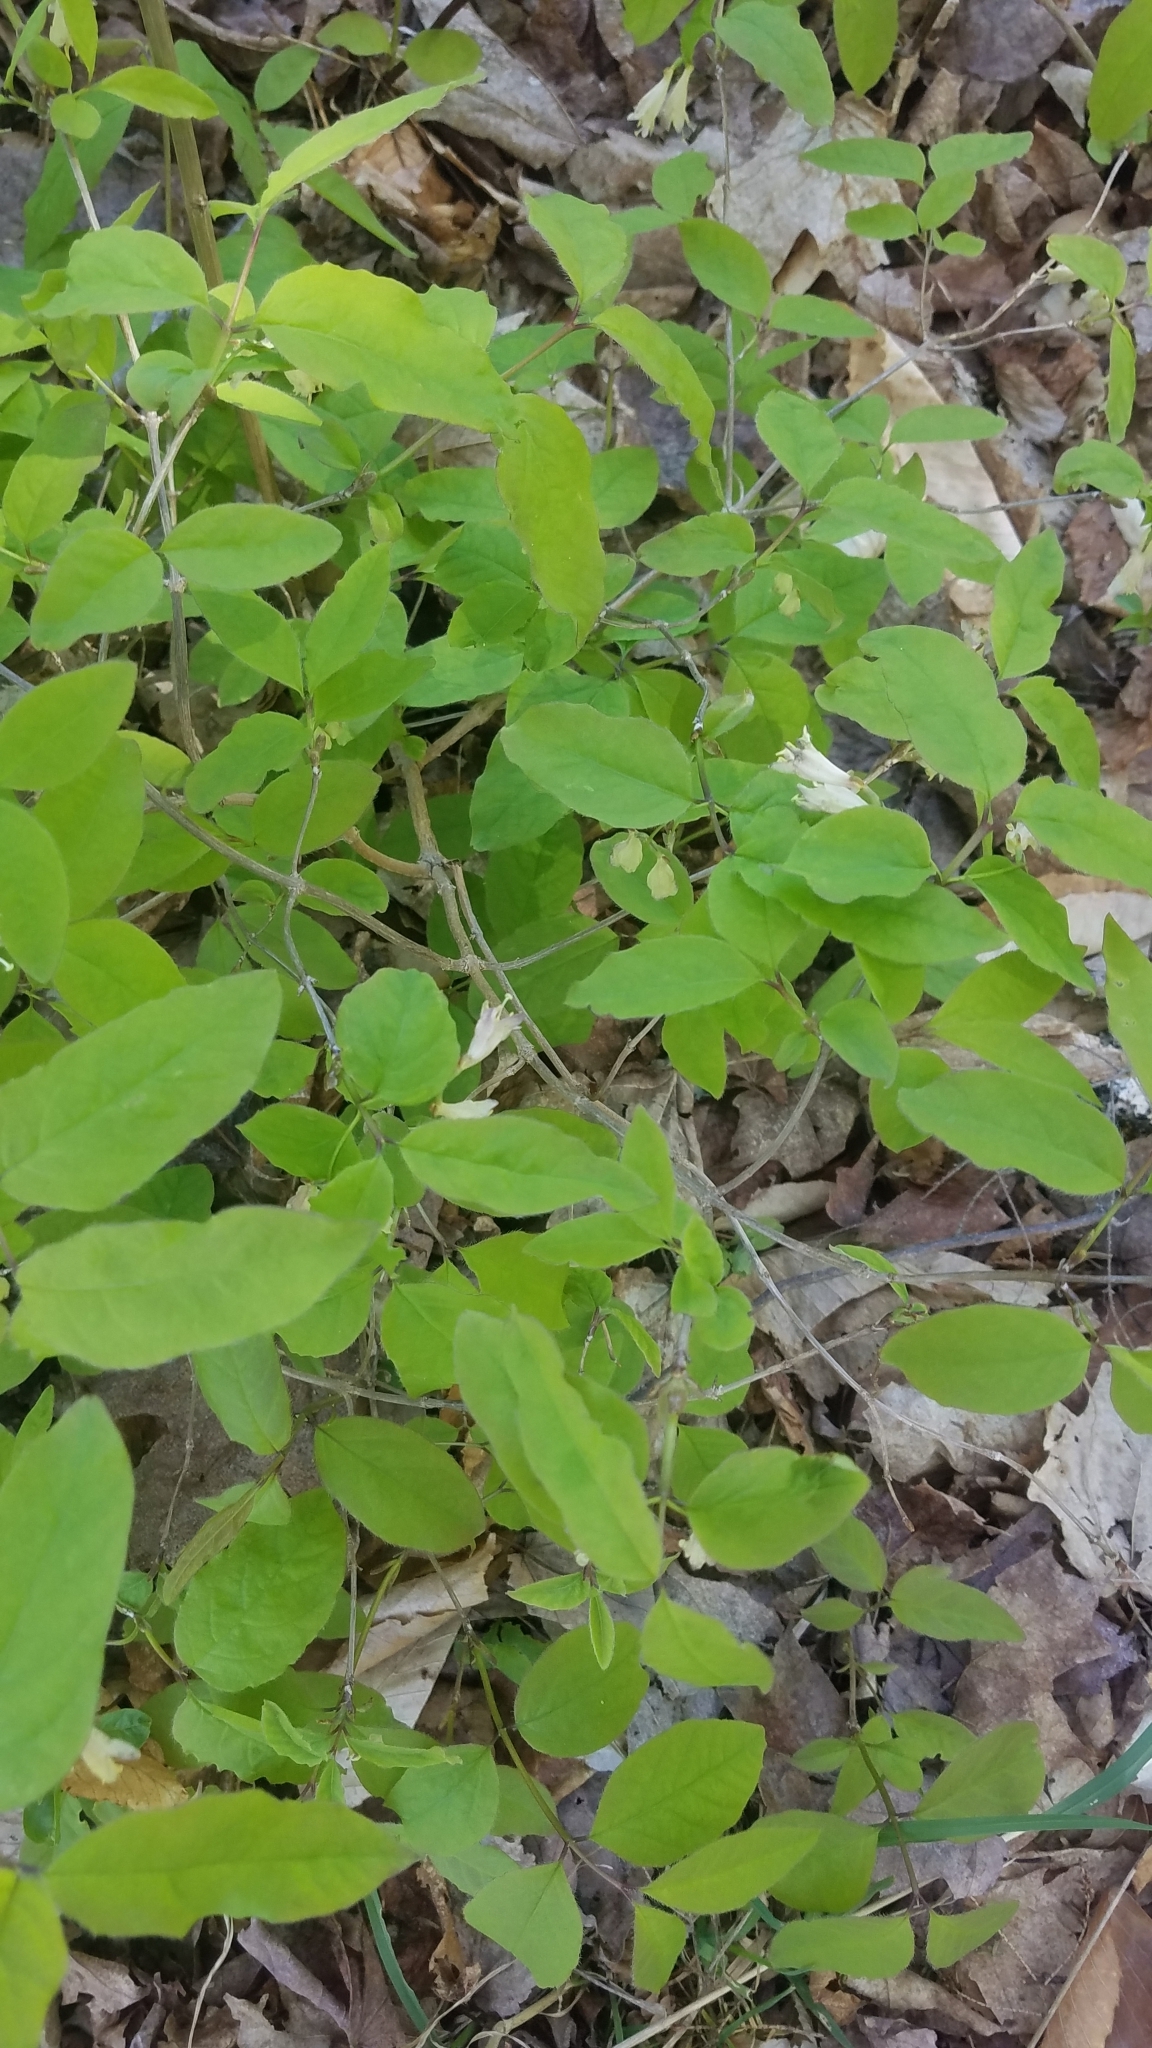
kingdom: Plantae
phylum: Tracheophyta
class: Magnoliopsida
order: Dipsacales
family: Caprifoliaceae
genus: Lonicera
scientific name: Lonicera canadensis
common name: American fly-honeysuckle
